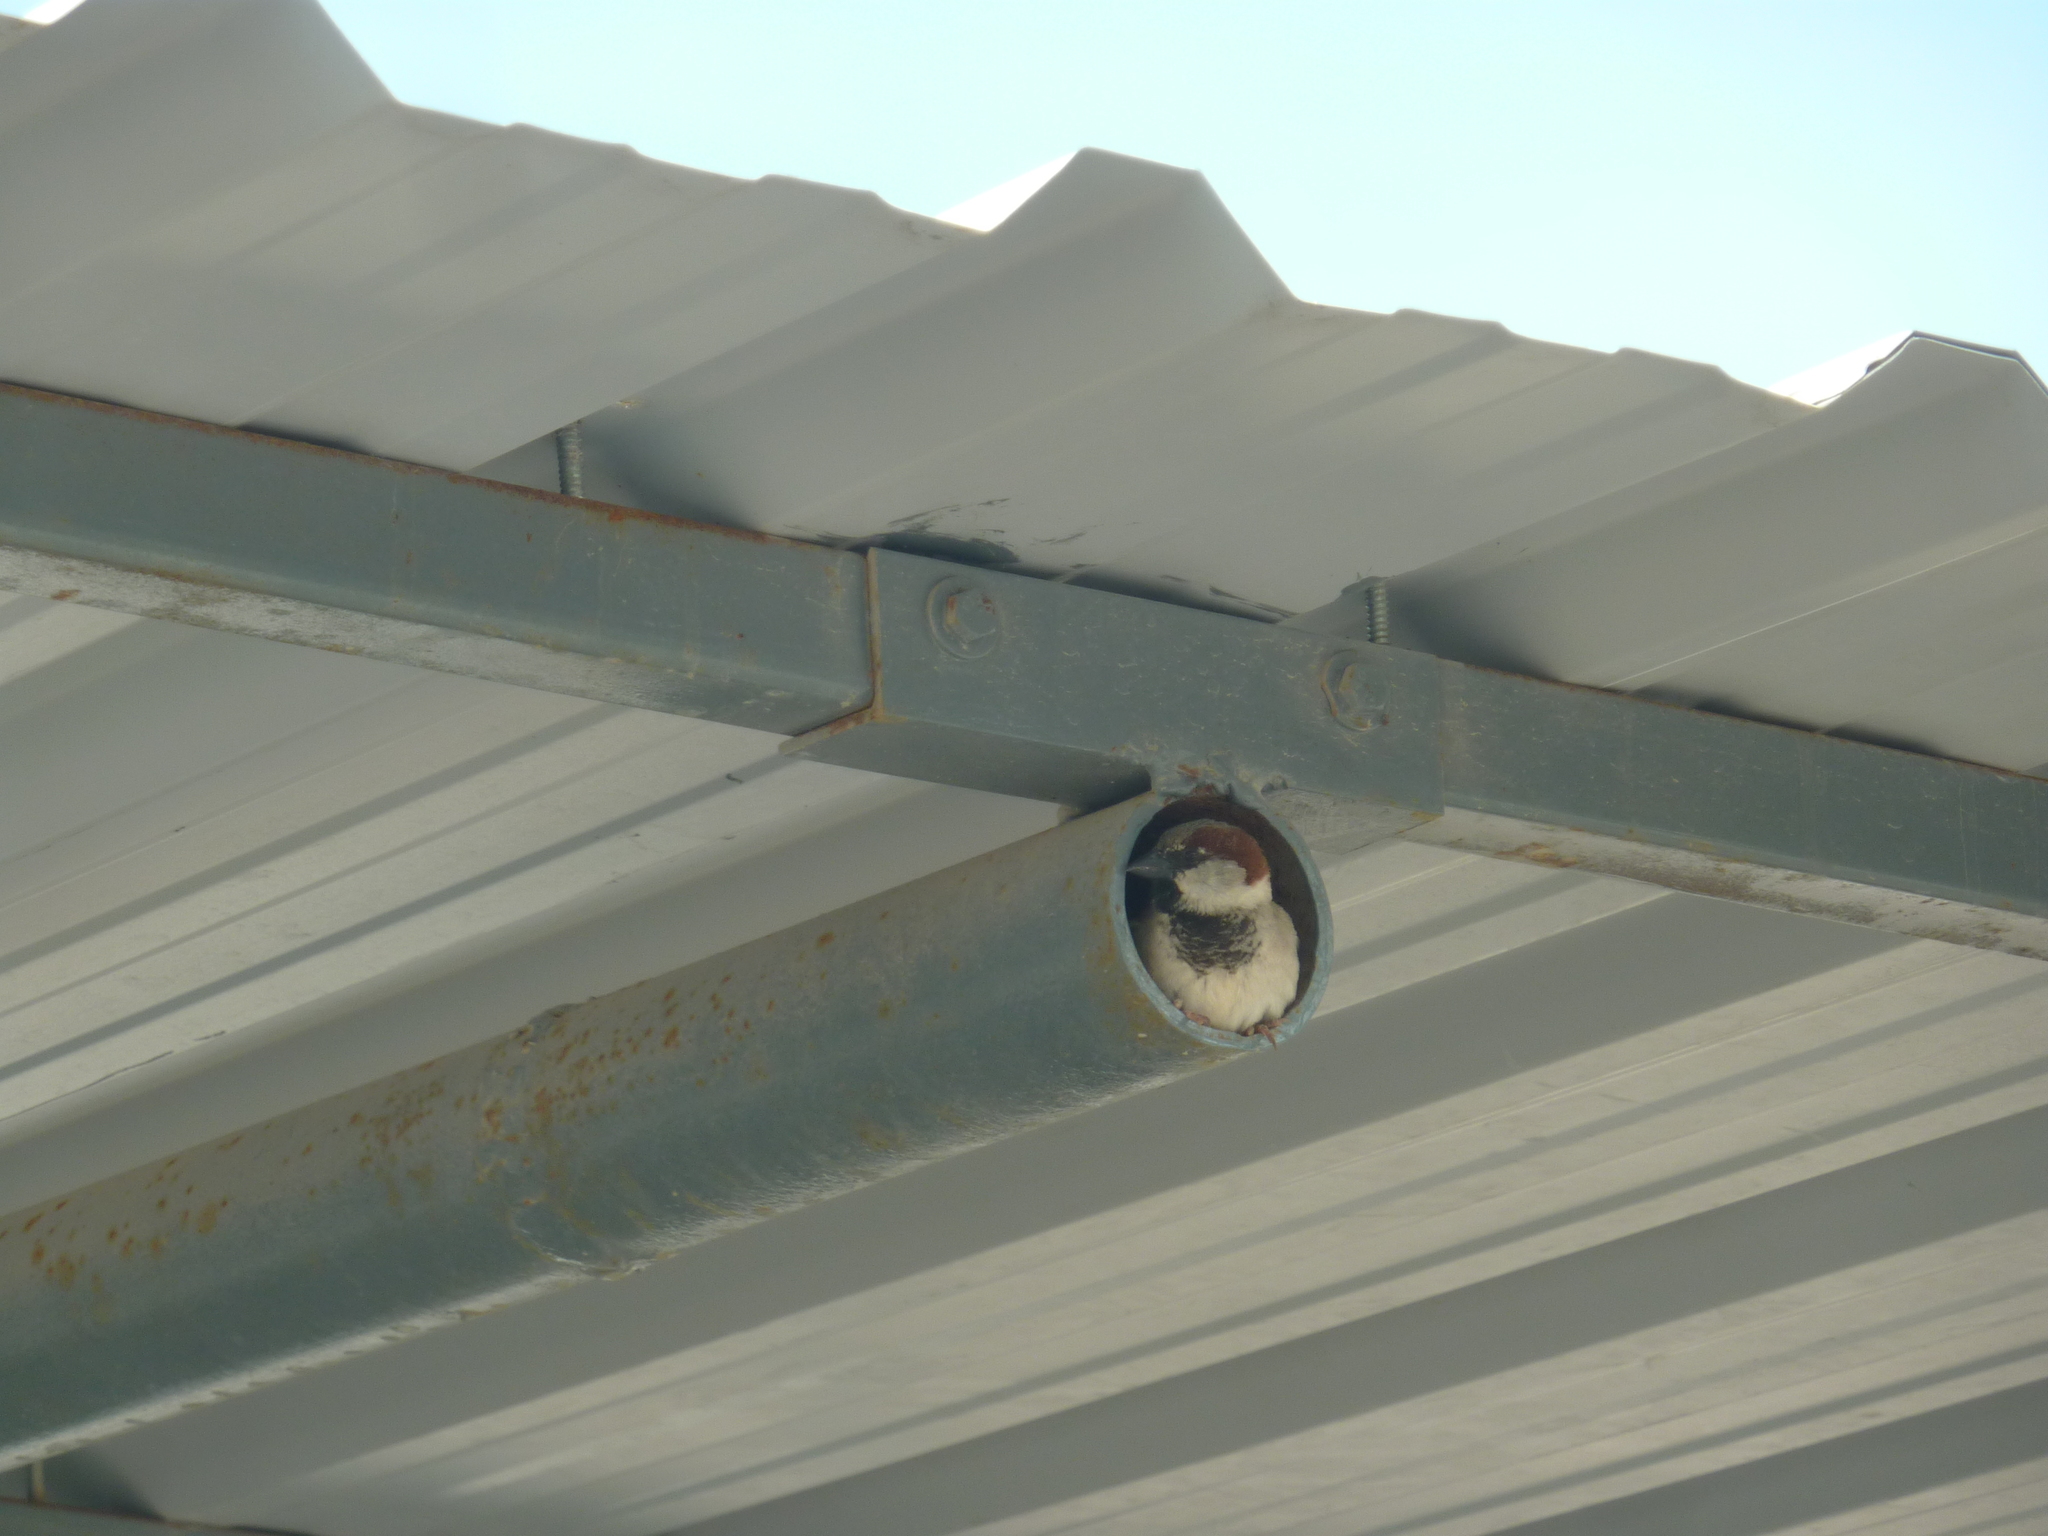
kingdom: Animalia
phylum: Chordata
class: Aves
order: Passeriformes
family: Passeridae
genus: Passer
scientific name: Passer domesticus
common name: House sparrow
